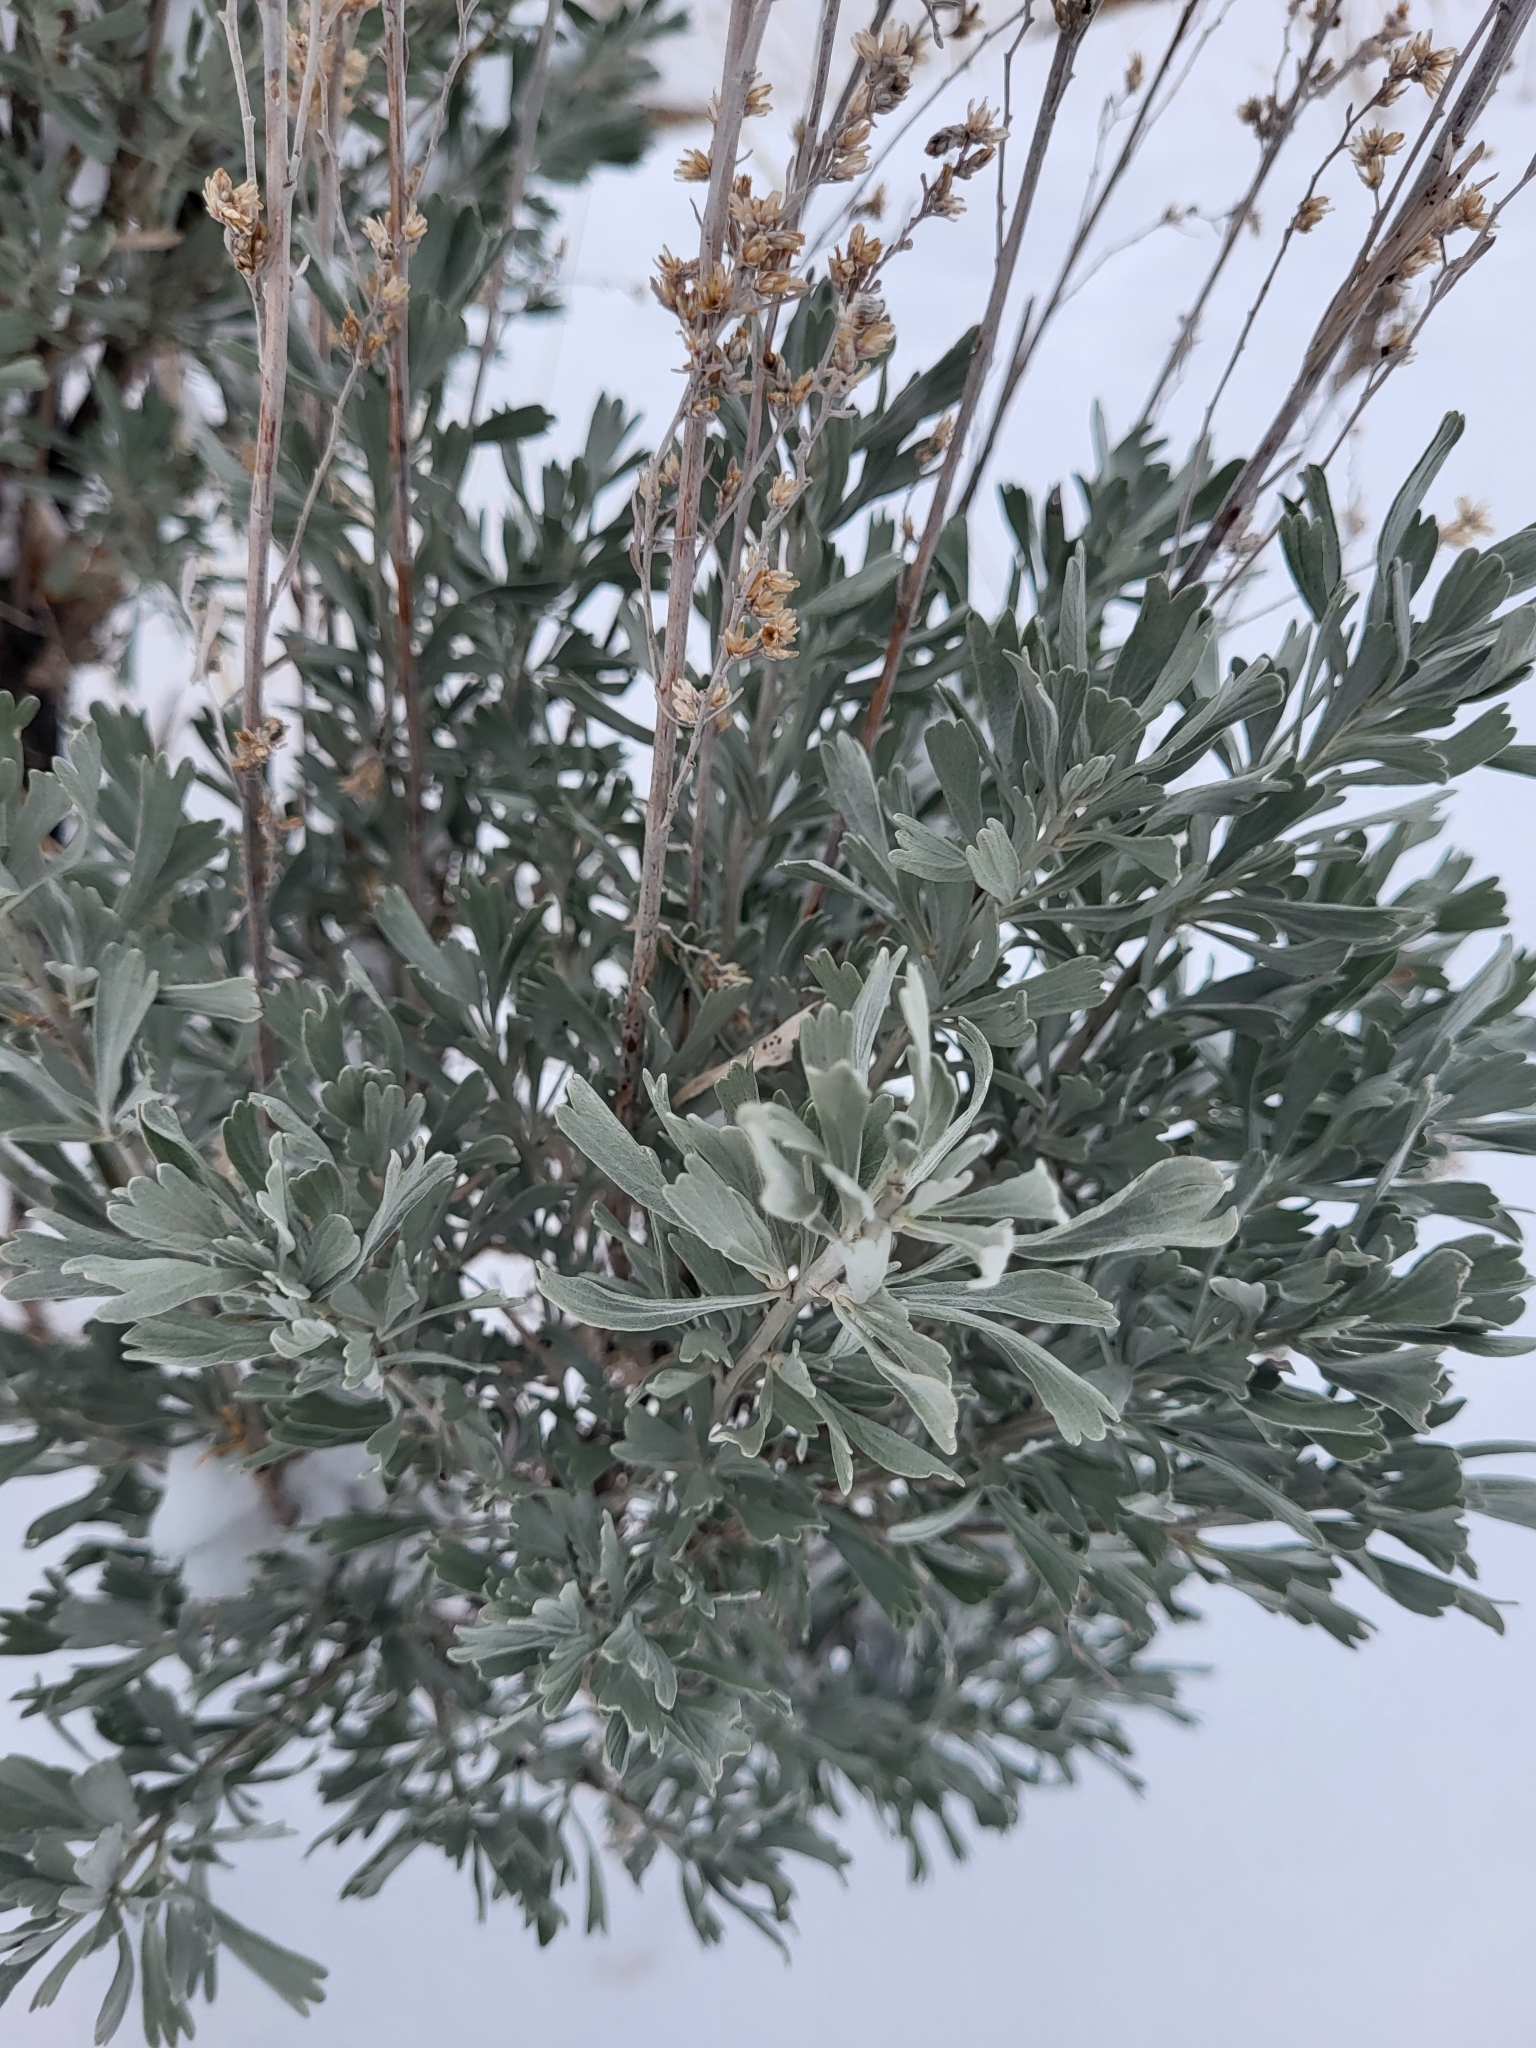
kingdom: Plantae
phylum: Tracheophyta
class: Magnoliopsida
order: Asterales
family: Asteraceae
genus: Artemisia
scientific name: Artemisia tridentata
